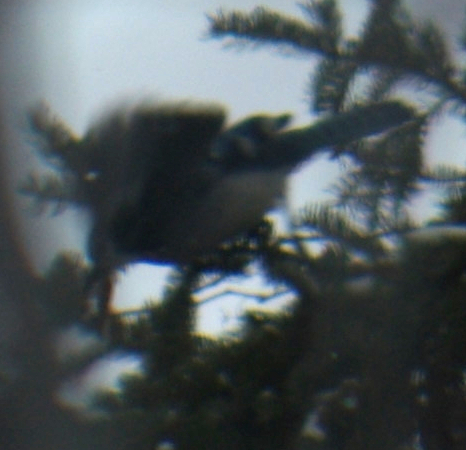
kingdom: Animalia
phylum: Chordata
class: Aves
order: Passeriformes
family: Corvidae
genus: Cyanocitta
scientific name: Cyanocitta cristata
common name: Blue jay
